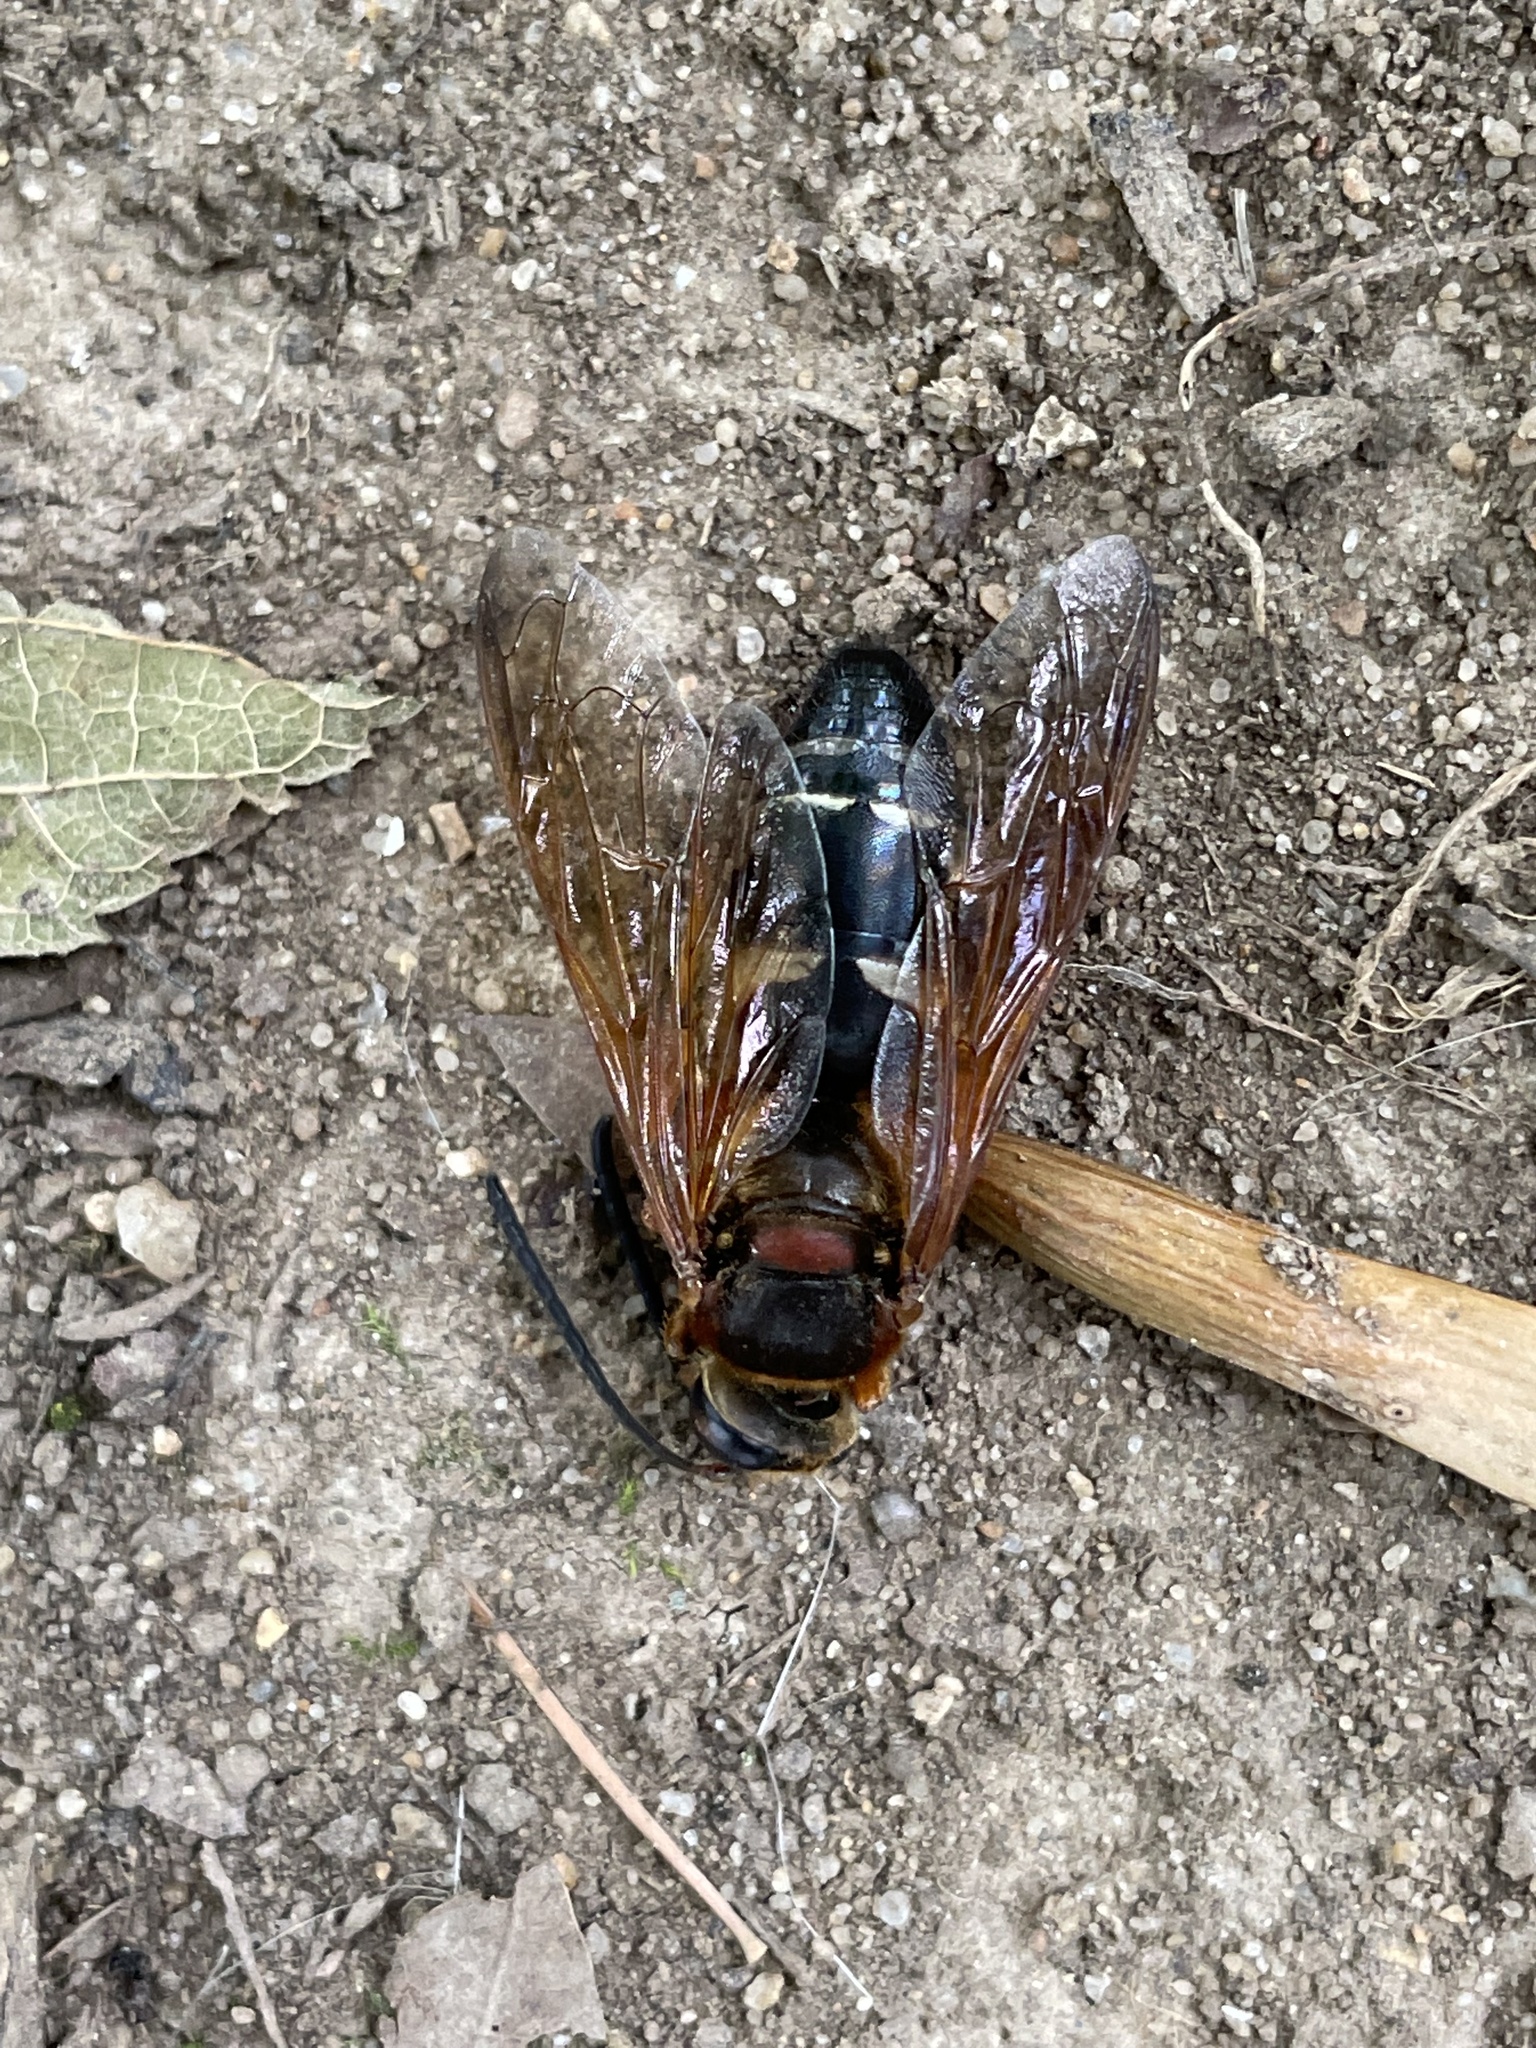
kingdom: Animalia
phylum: Arthropoda
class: Insecta
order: Hymenoptera
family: Crabronidae
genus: Sphecius
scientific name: Sphecius speciosus
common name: Cicada killer
